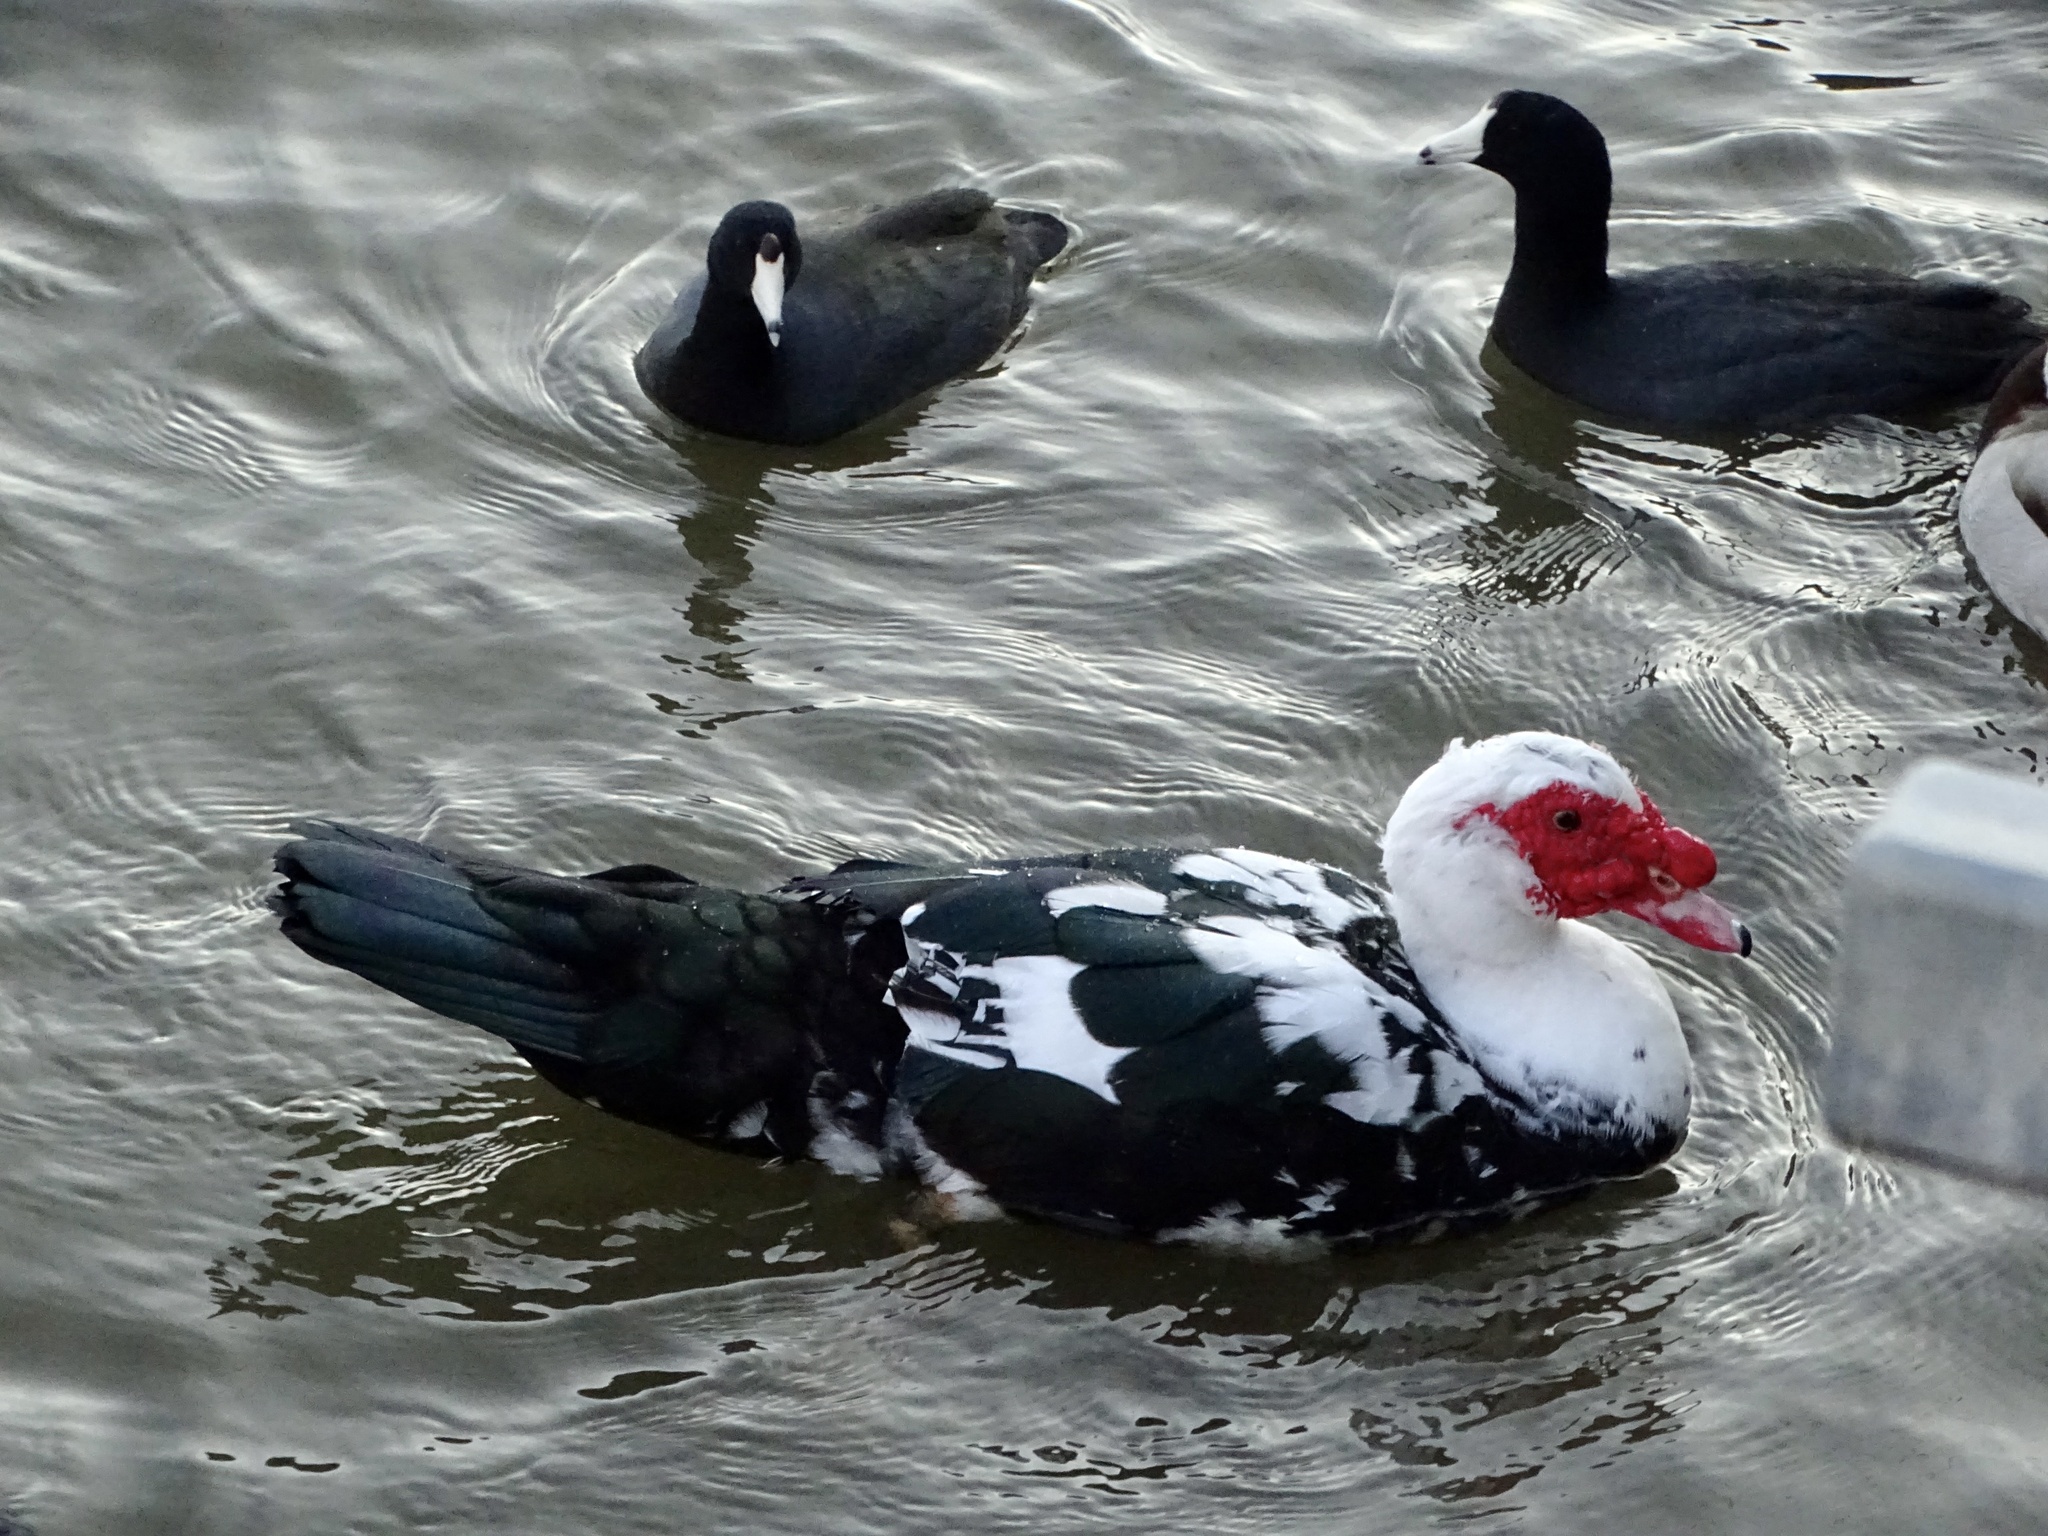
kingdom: Animalia
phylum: Chordata
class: Aves
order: Anseriformes
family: Anatidae
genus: Cairina
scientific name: Cairina moschata
